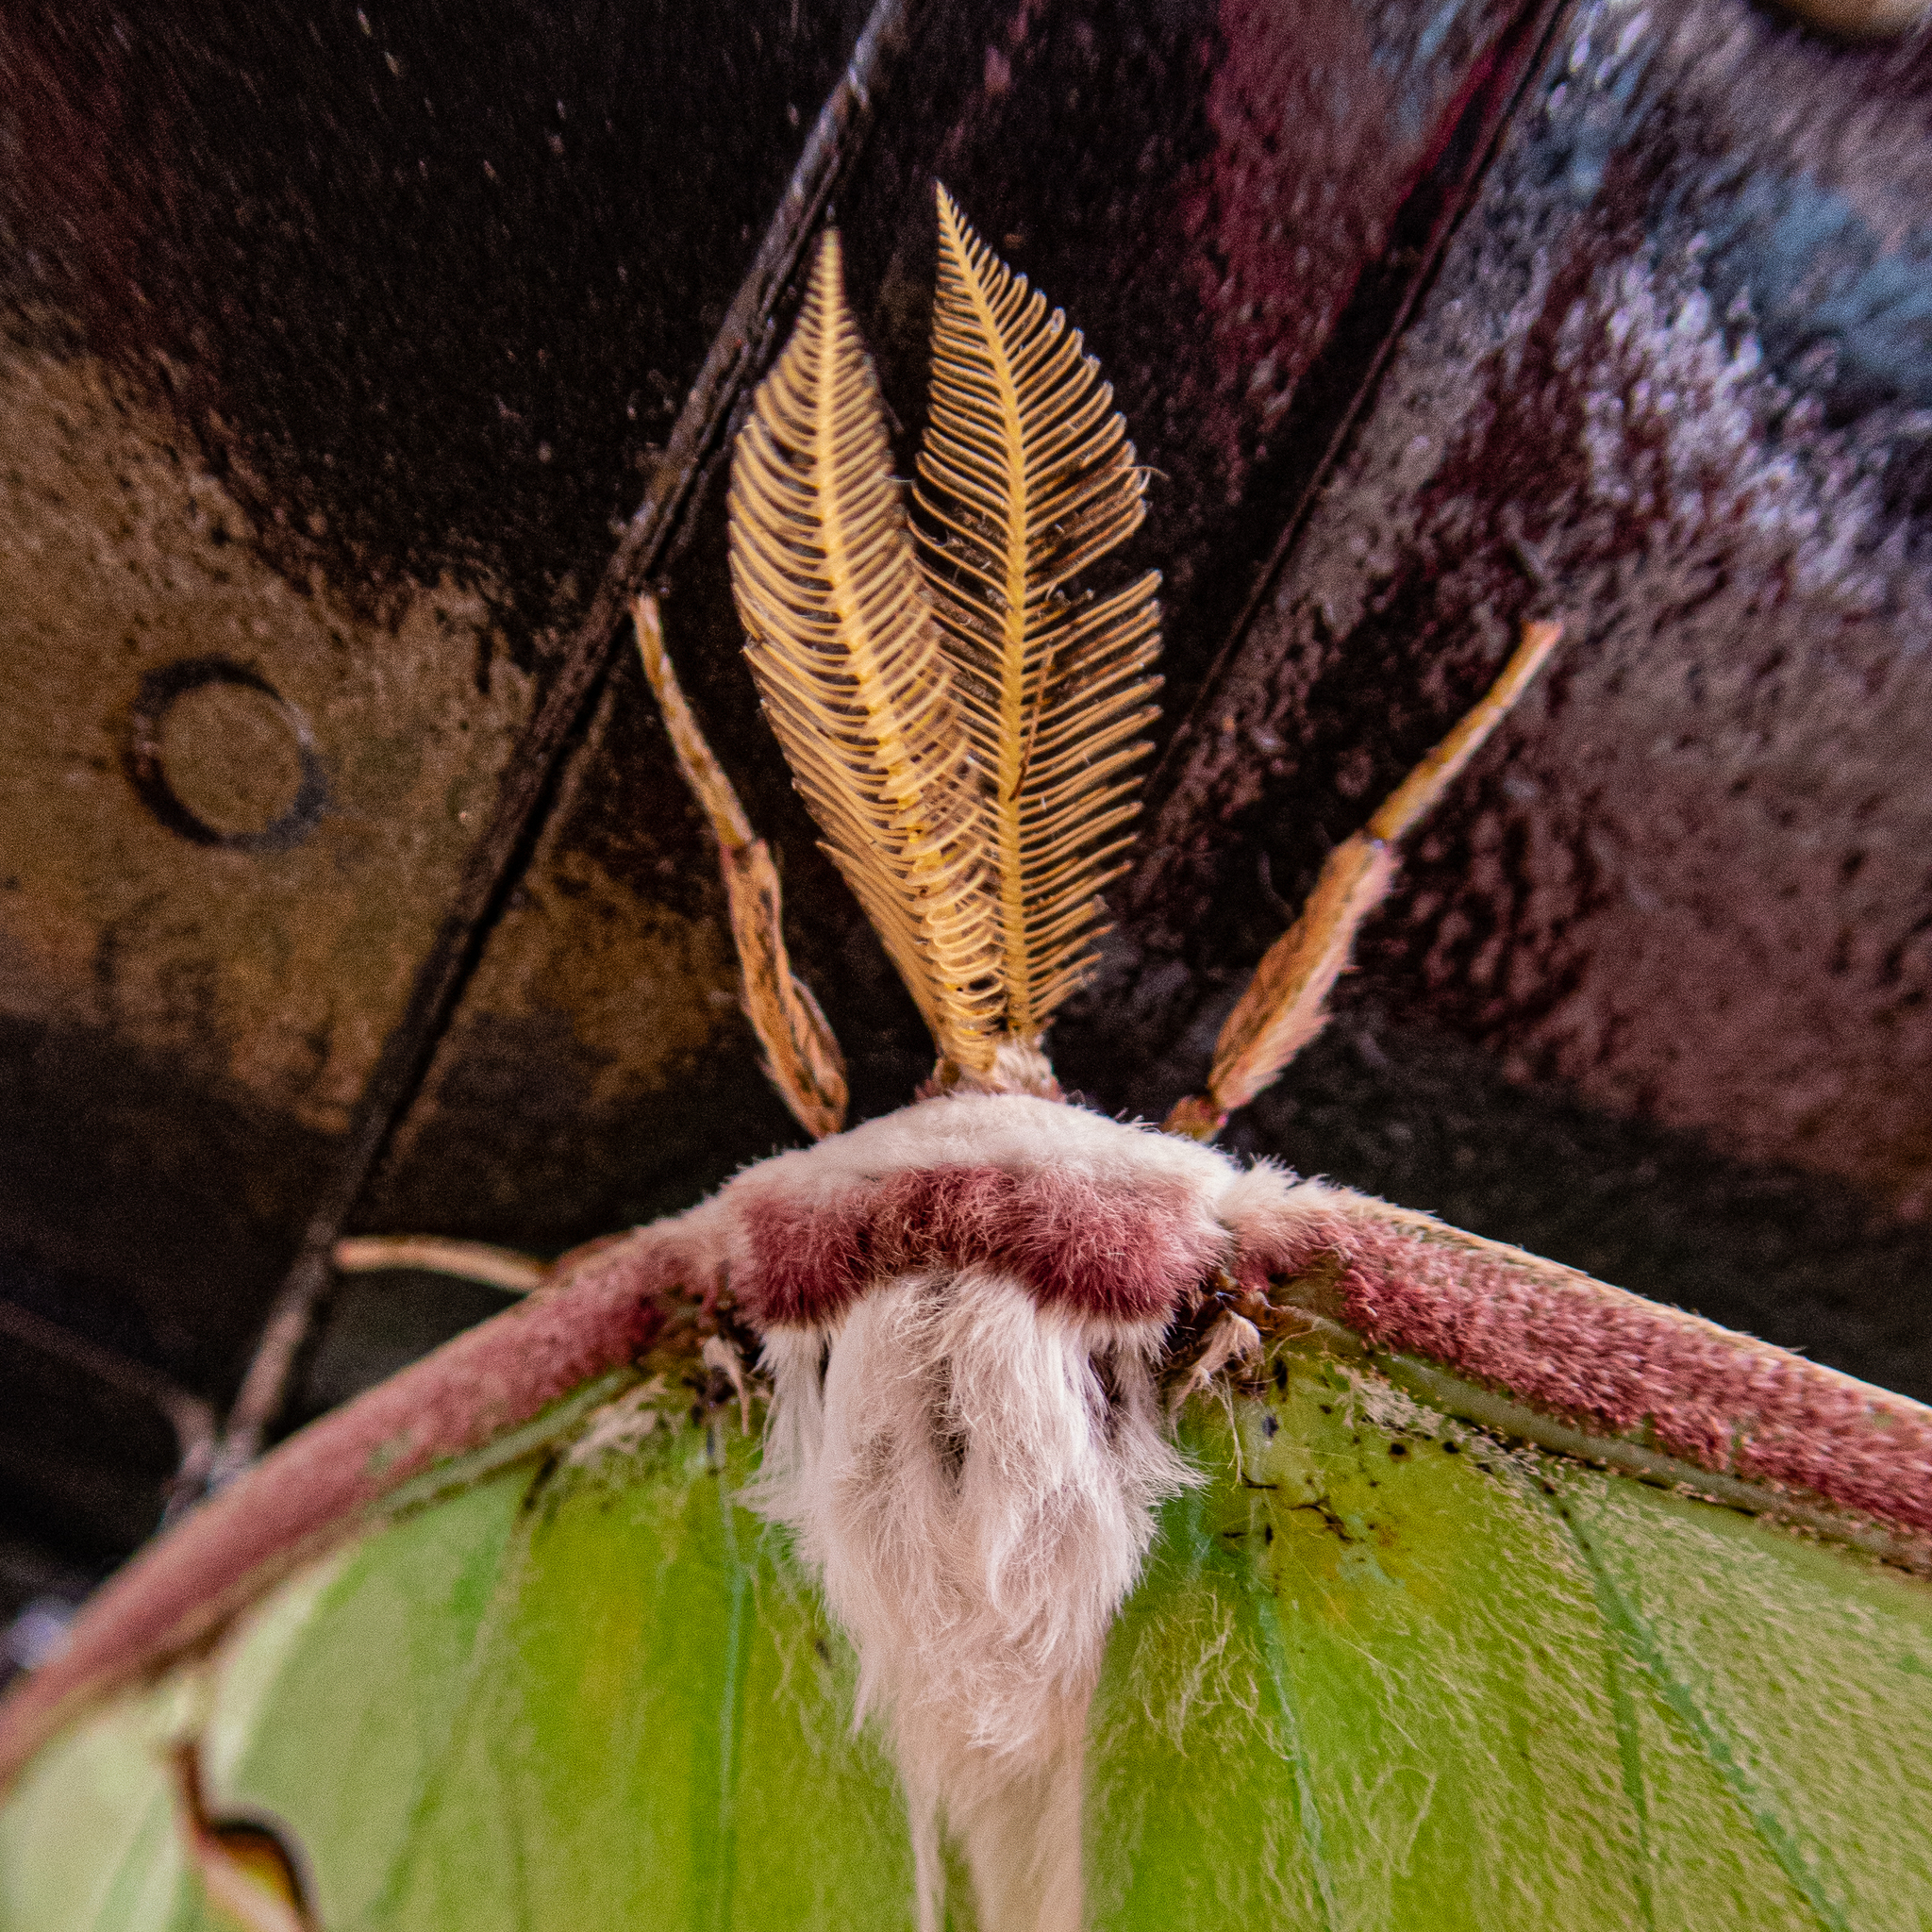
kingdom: Animalia
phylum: Arthropoda
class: Insecta
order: Lepidoptera
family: Saturniidae
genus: Actias
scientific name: Actias luna
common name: Luna moth
